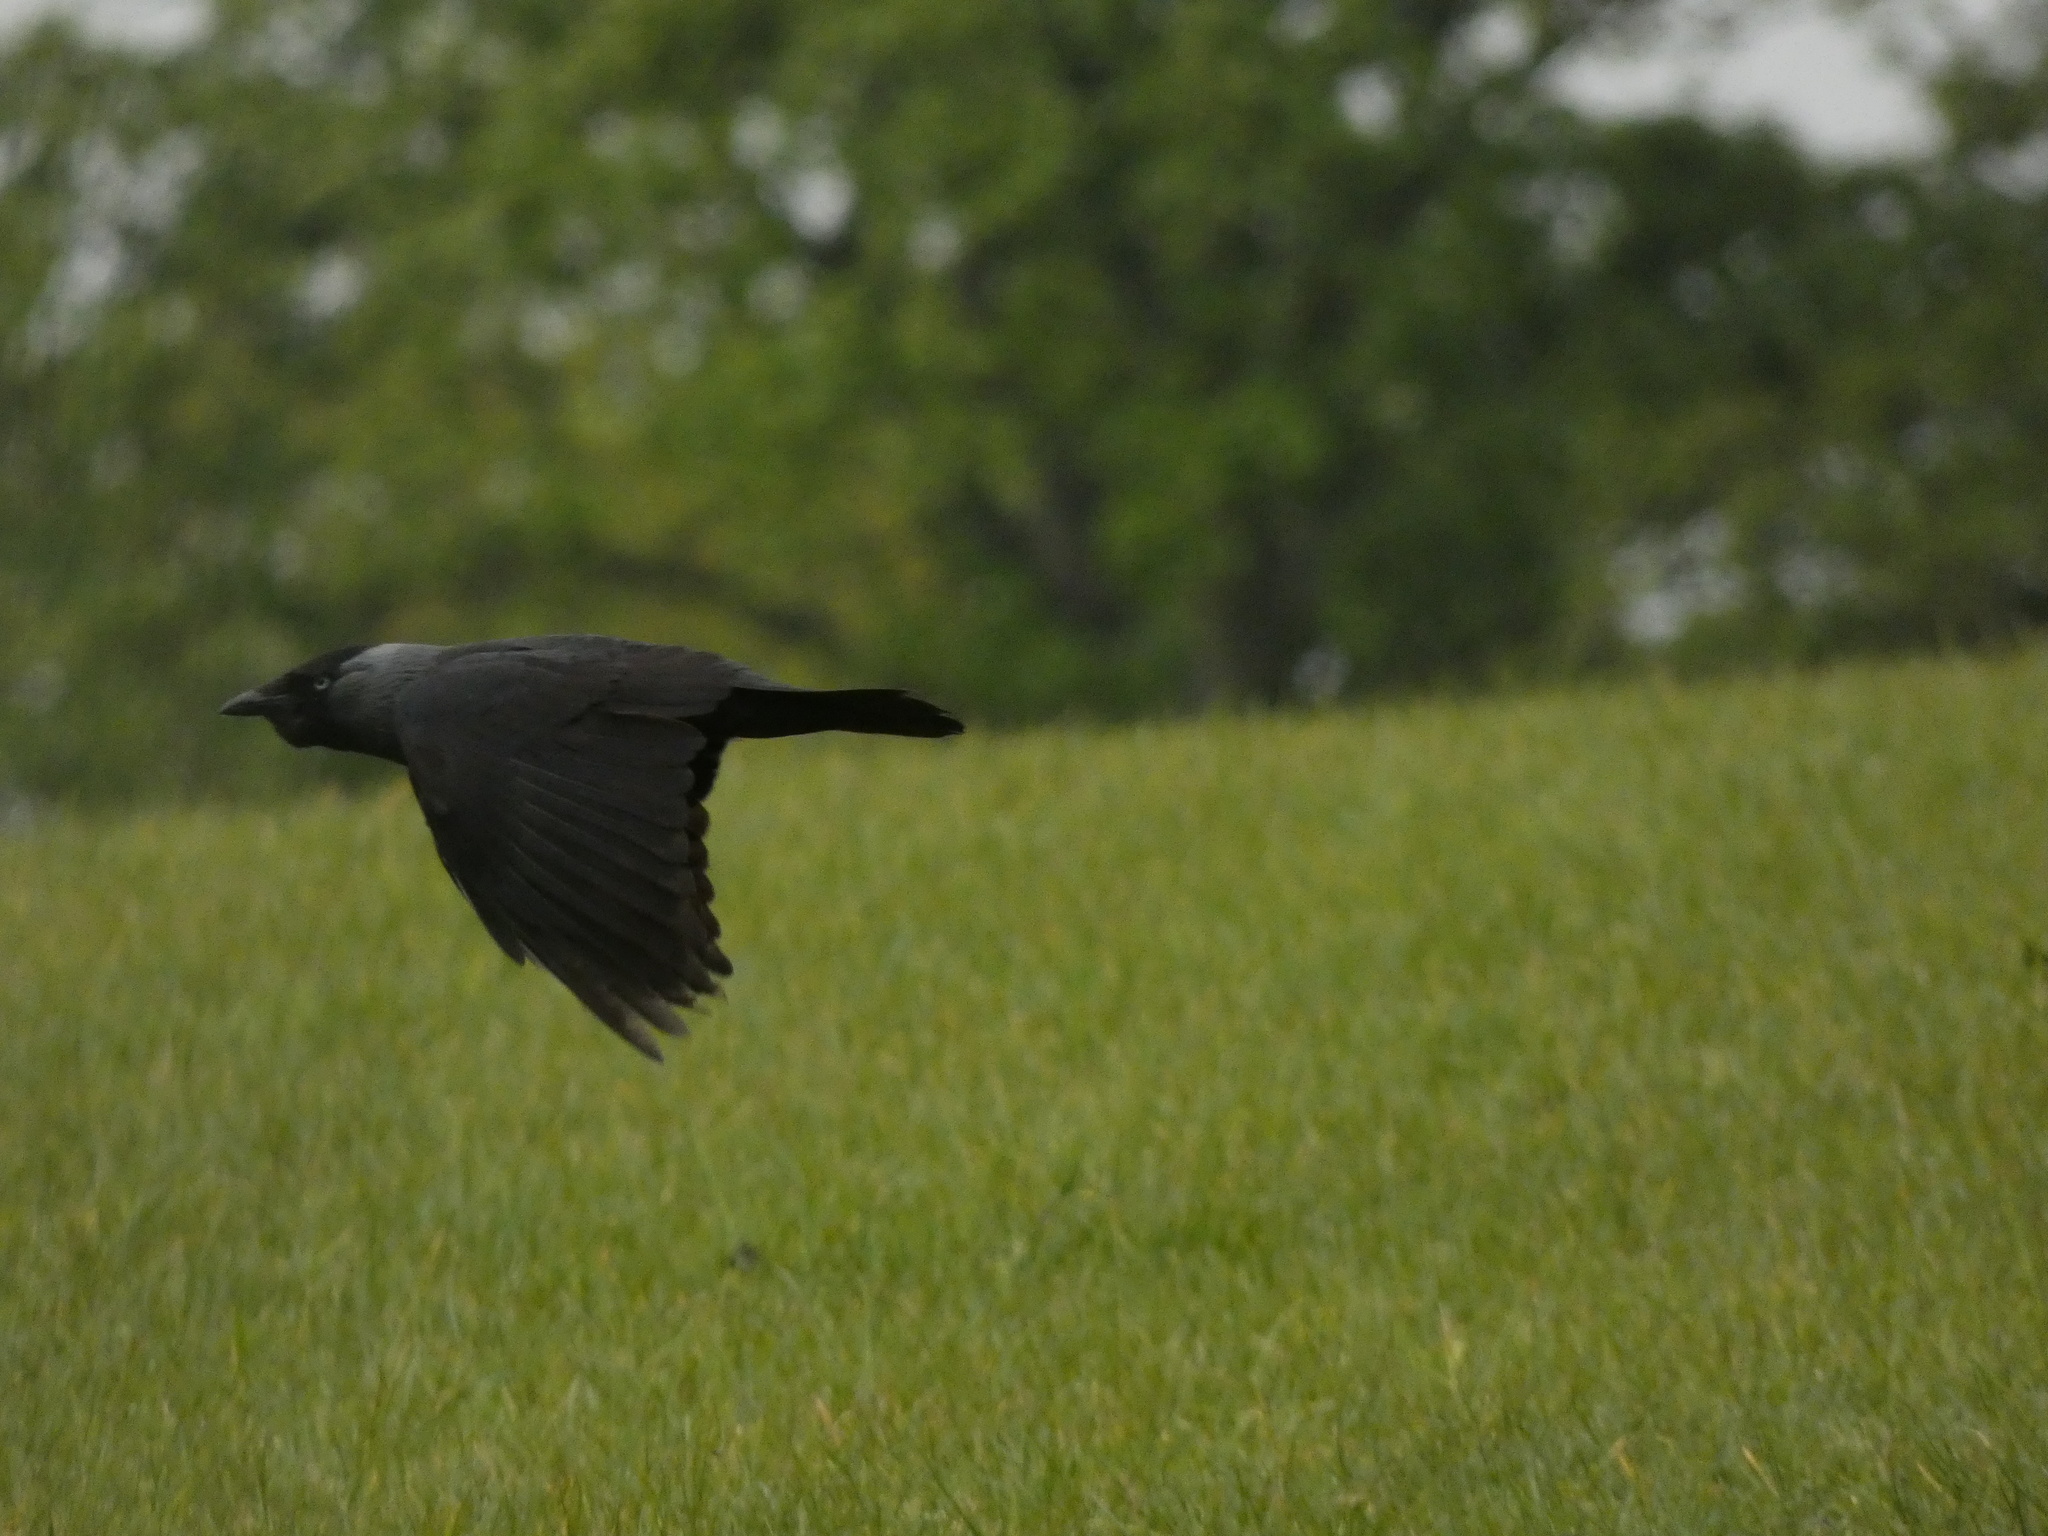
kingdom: Animalia
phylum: Chordata
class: Aves
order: Passeriformes
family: Corvidae
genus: Coloeus
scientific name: Coloeus monedula
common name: Western jackdaw
